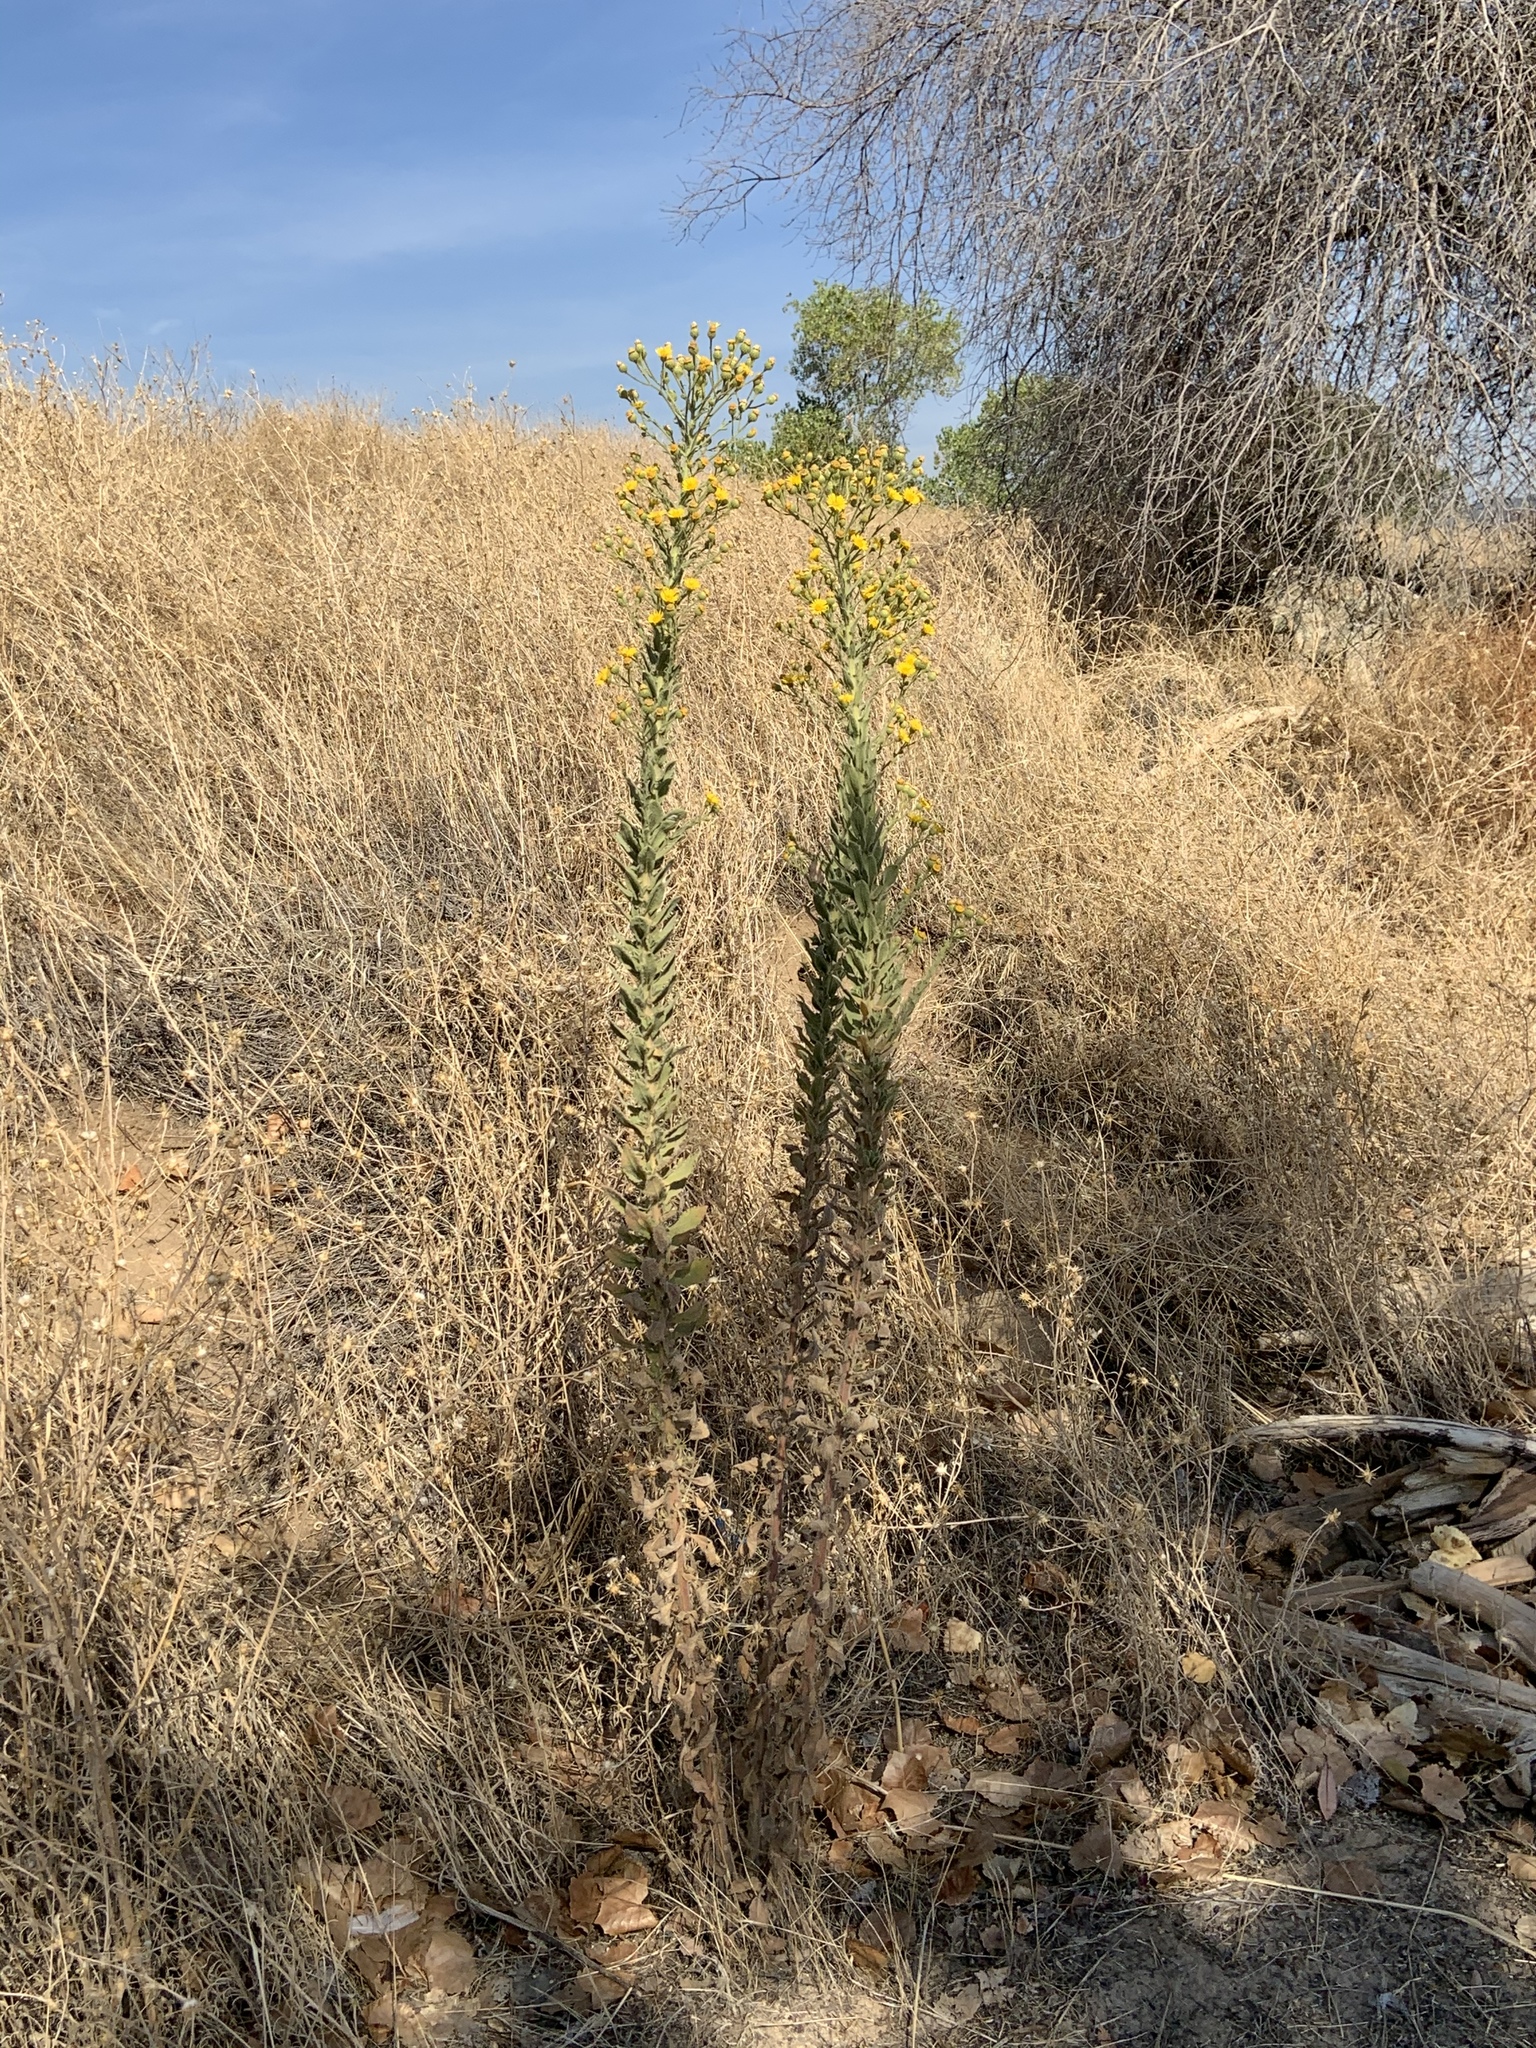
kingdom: Plantae
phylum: Tracheophyta
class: Magnoliopsida
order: Asterales
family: Asteraceae
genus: Heterotheca
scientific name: Heterotheca grandiflora
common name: Telegraphweed
